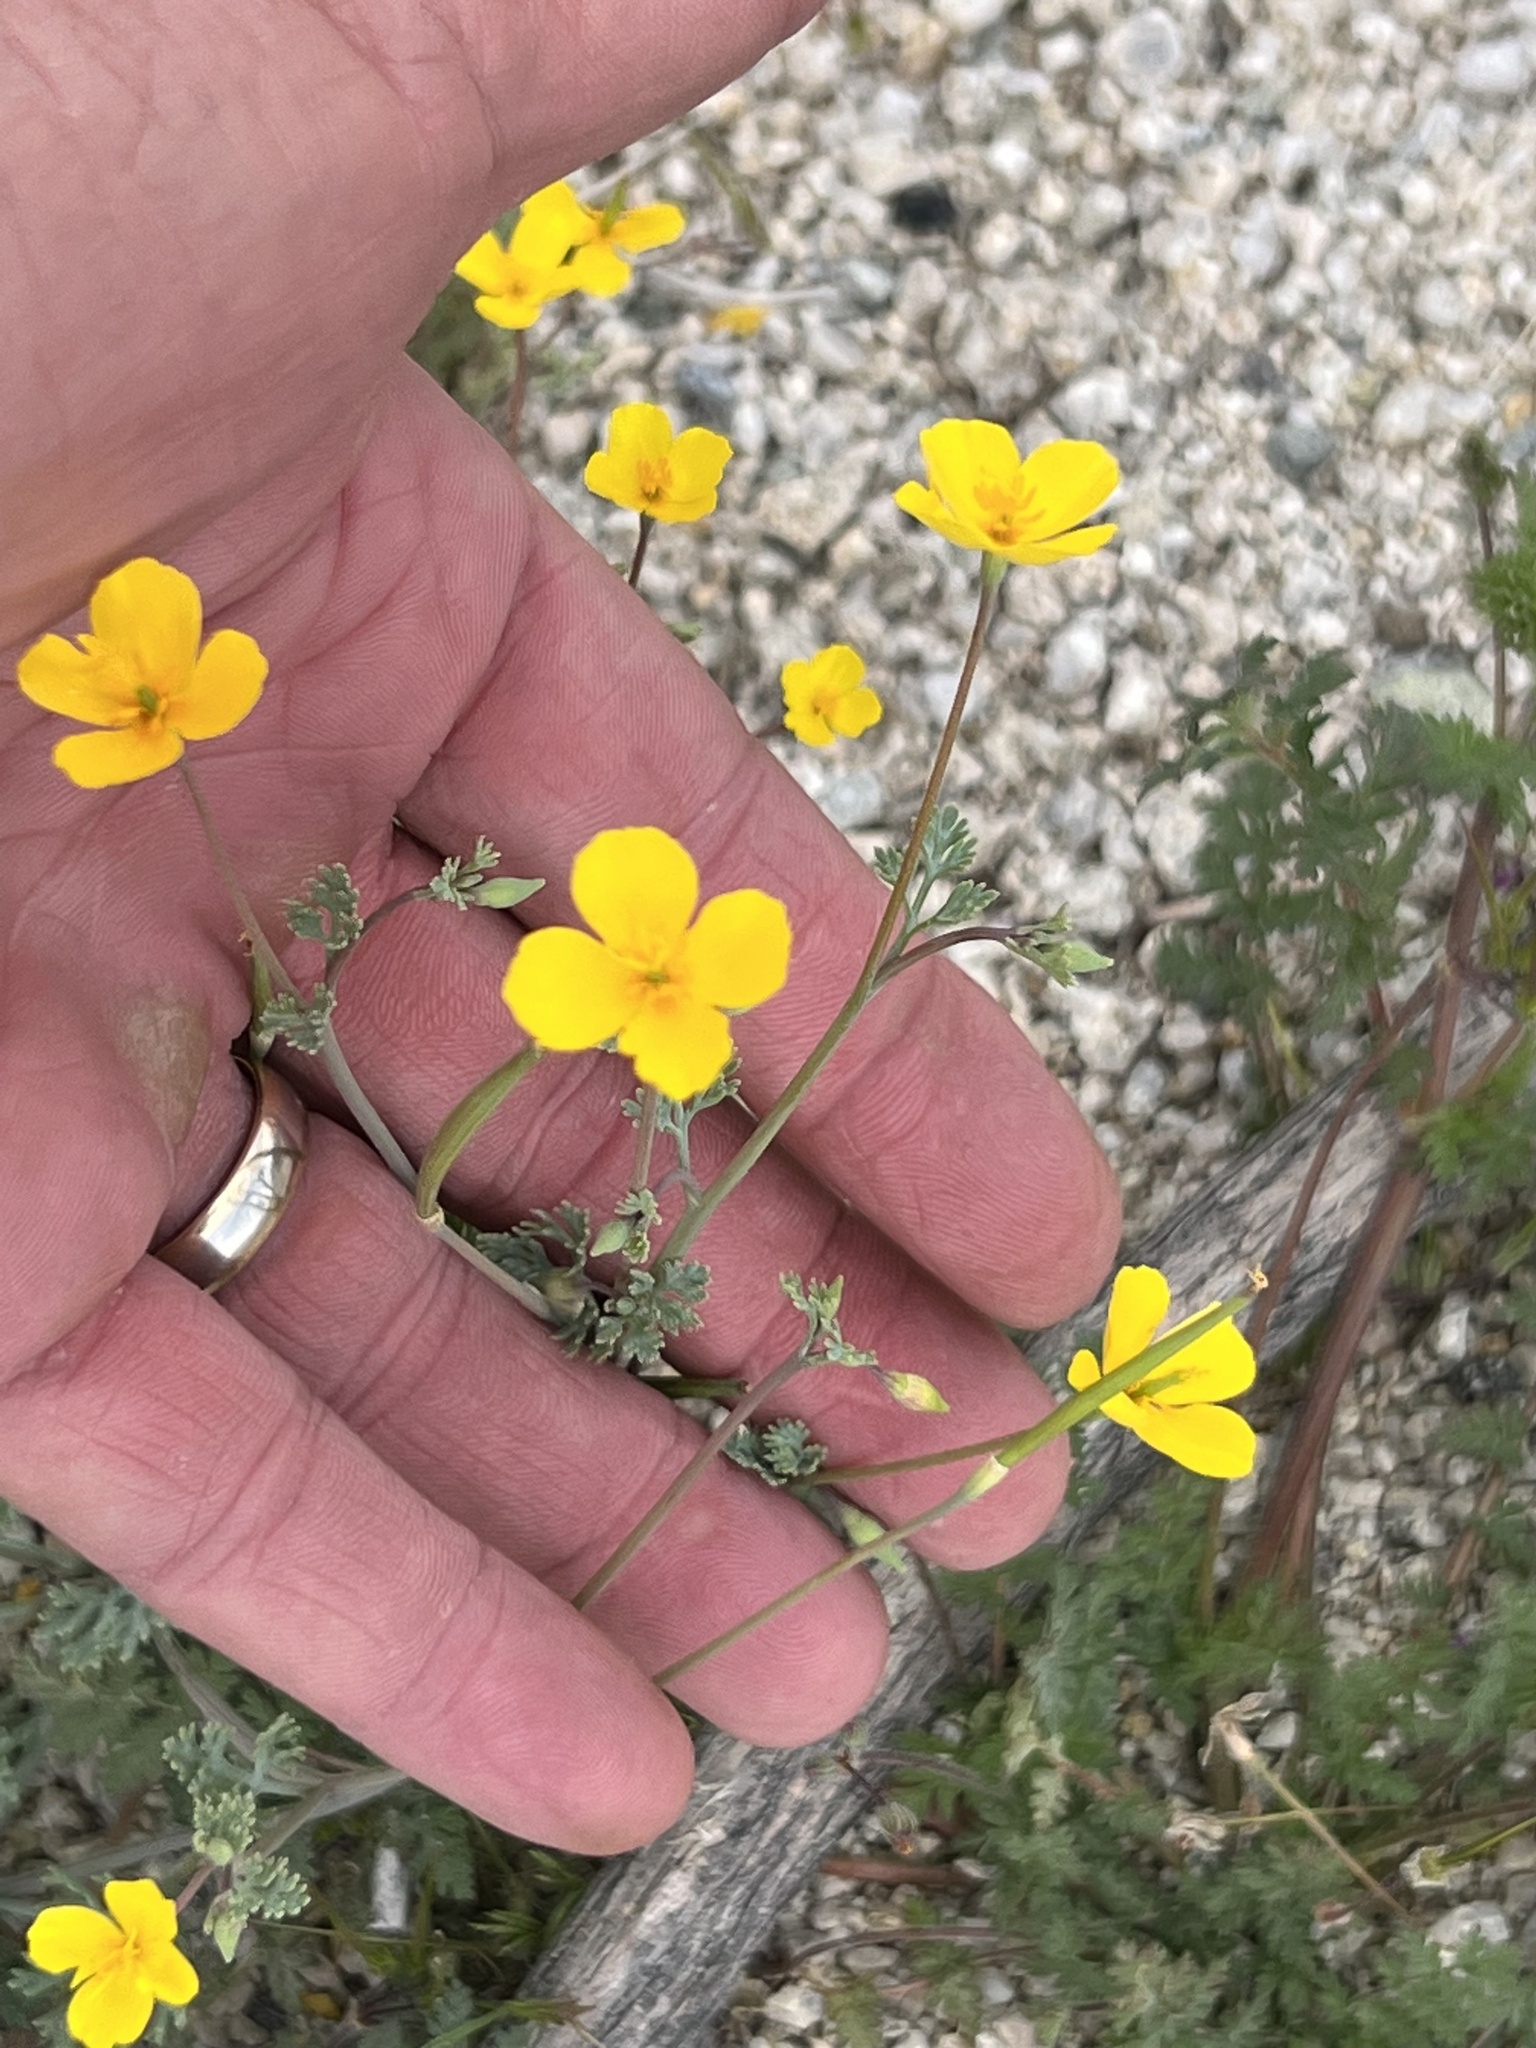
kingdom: Plantae
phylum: Tracheophyta
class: Magnoliopsida
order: Ranunculales
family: Papaveraceae
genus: Eschscholzia
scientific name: Eschscholzia minutiflora
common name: Small-flower california-poppy
